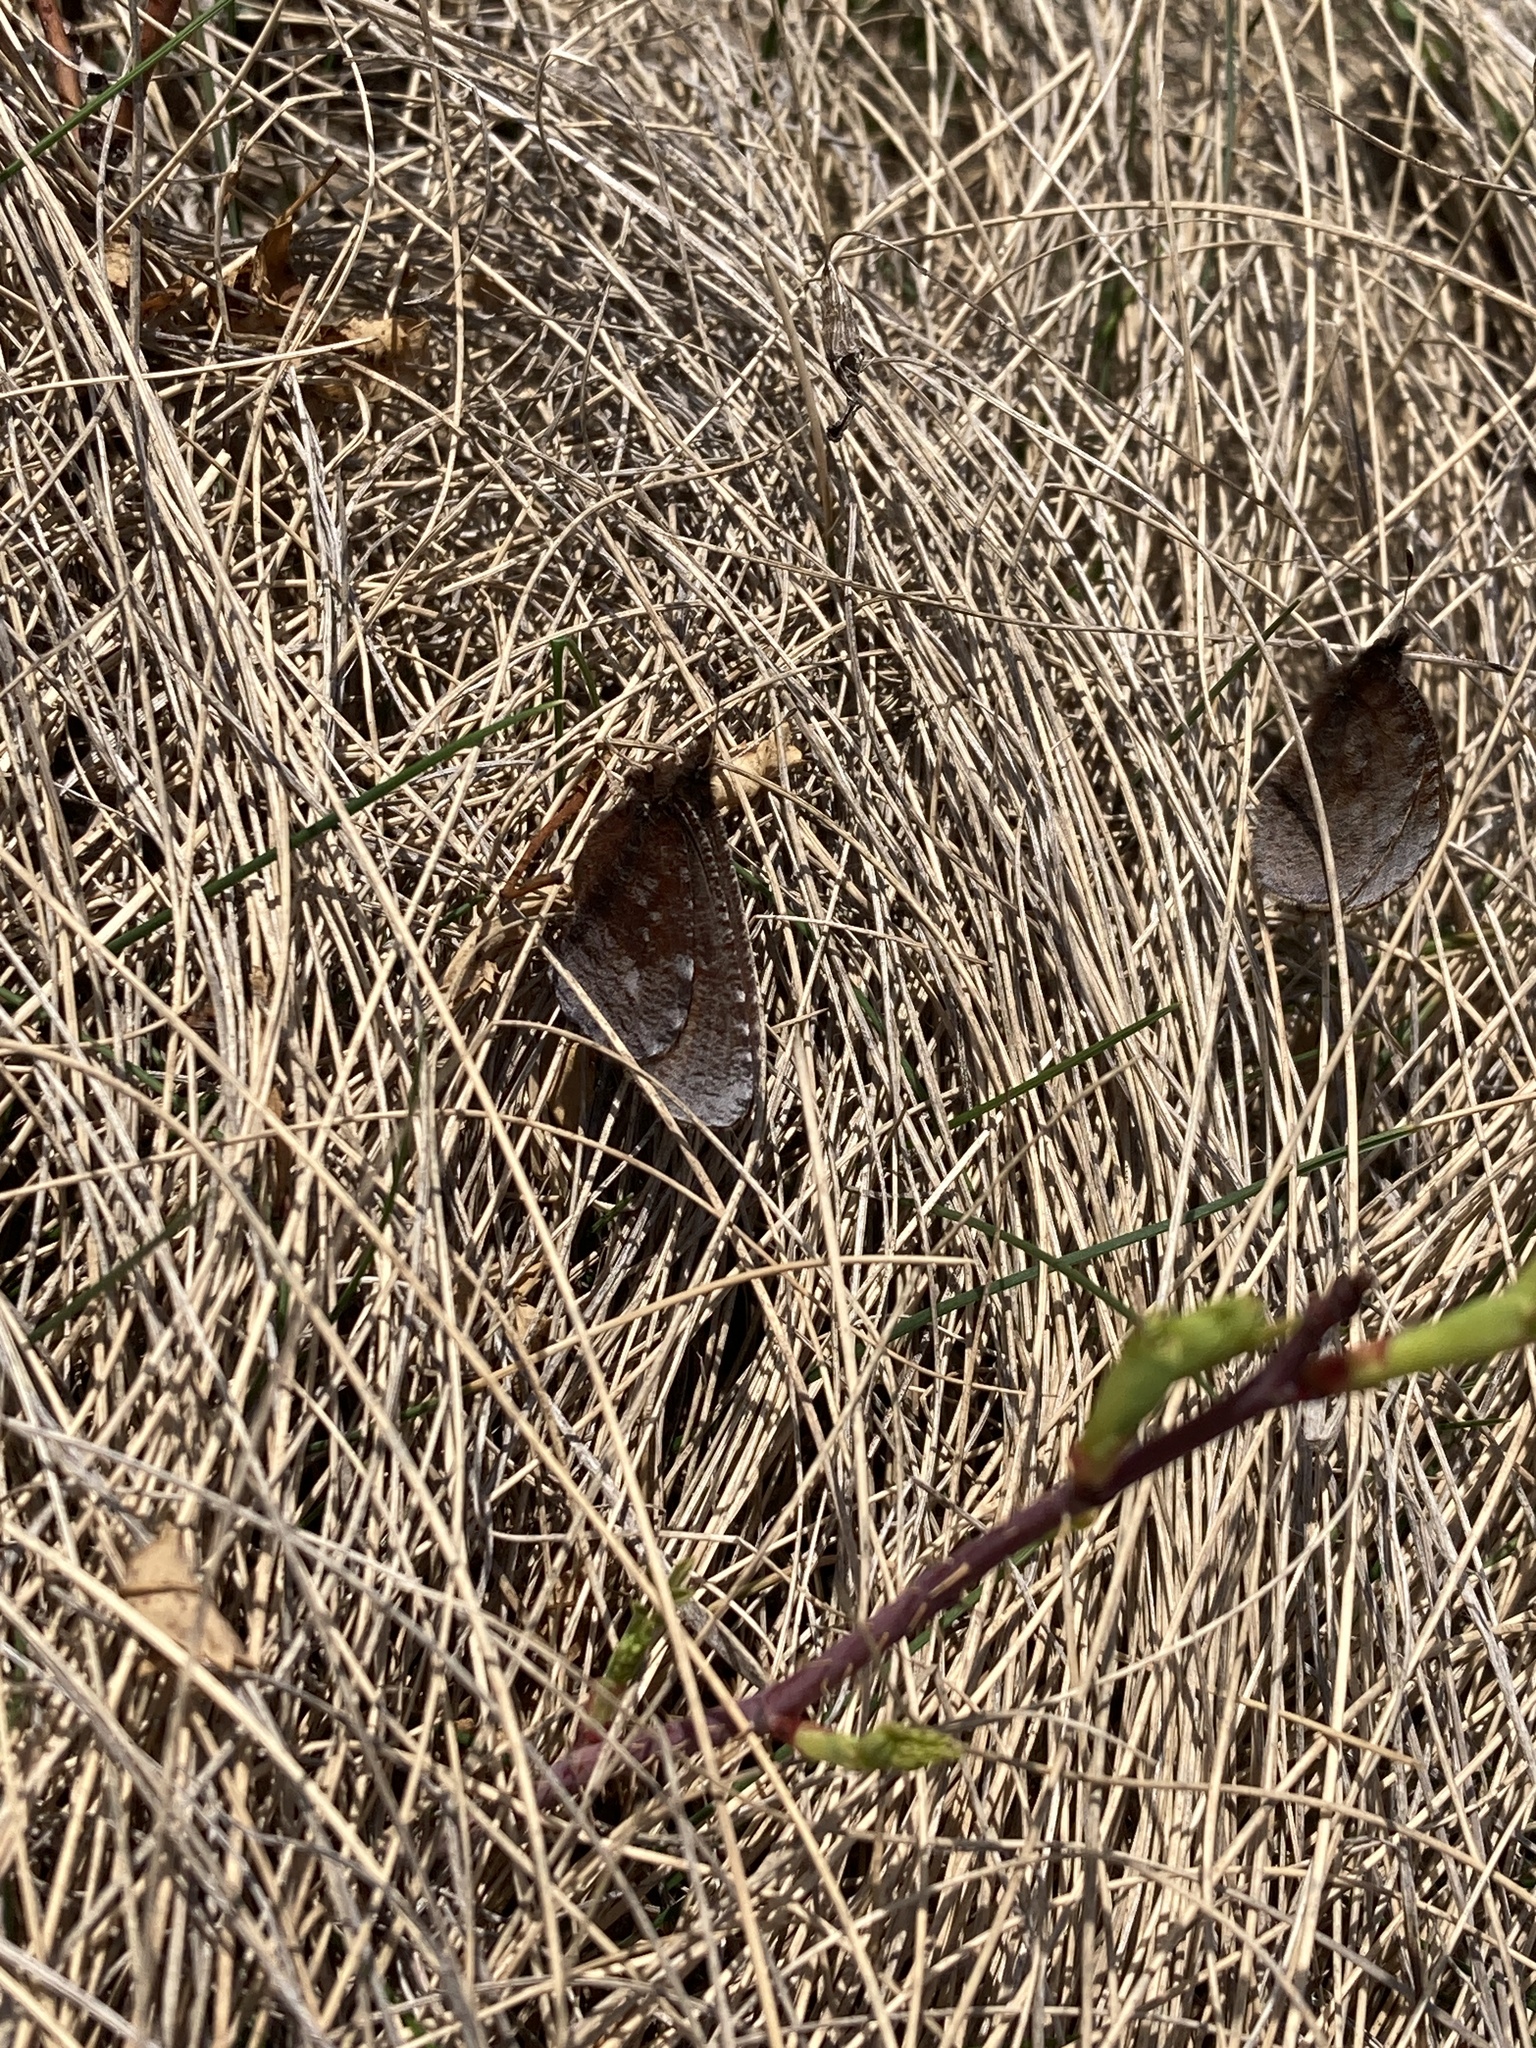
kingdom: Animalia
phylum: Arthropoda
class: Insecta
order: Lepidoptera
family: Nymphalidae
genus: Erebia
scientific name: Erebia discoidalis
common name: Red-disked alpine
